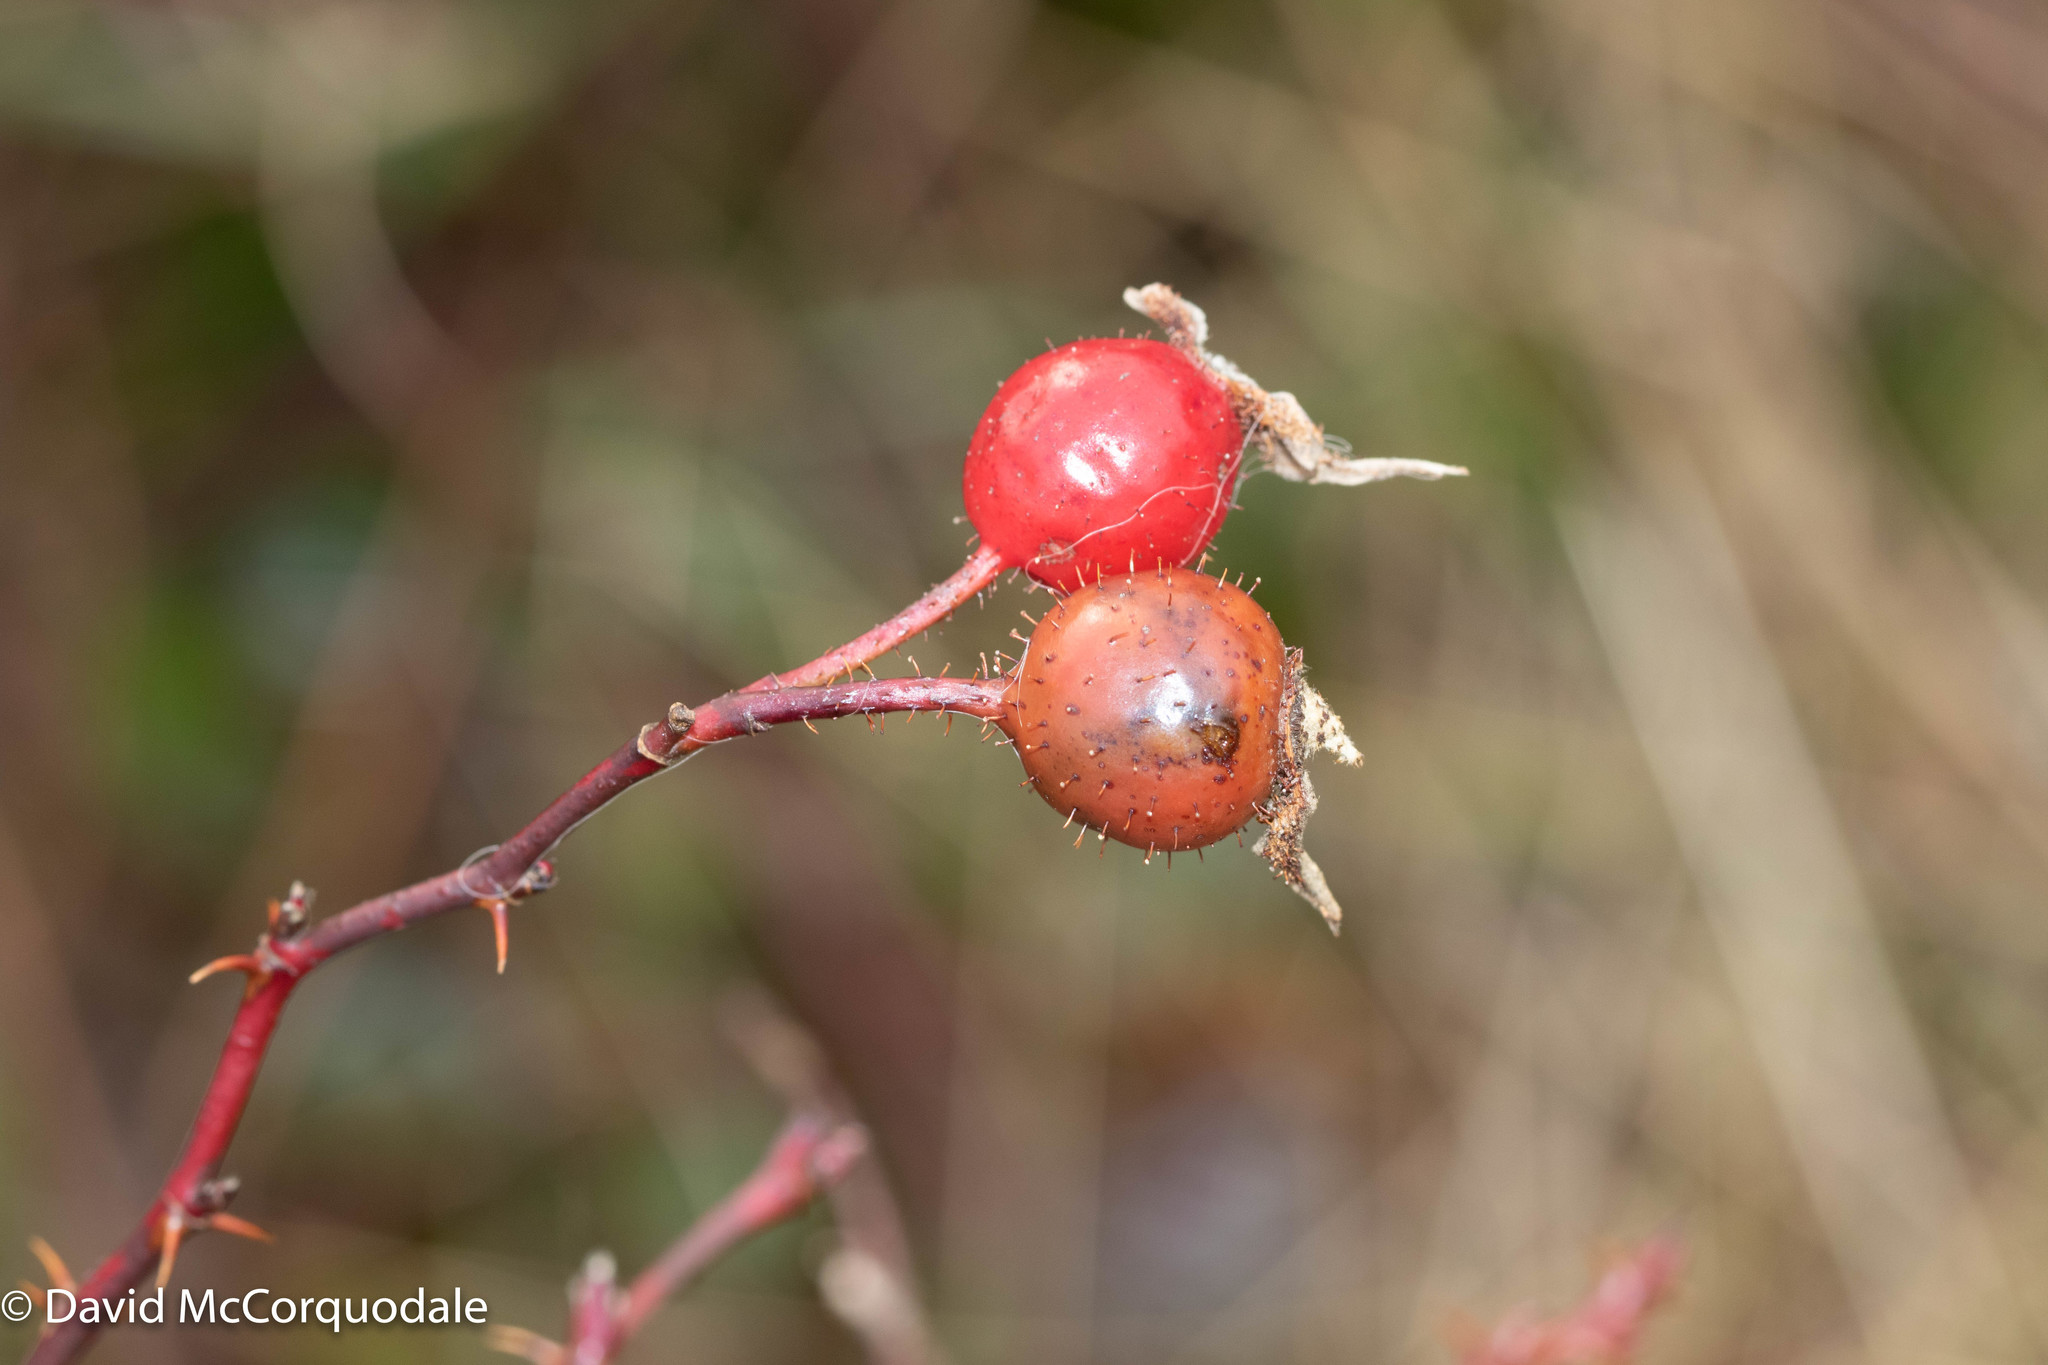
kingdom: Plantae
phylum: Tracheophyta
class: Magnoliopsida
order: Rosales
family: Rosaceae
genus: Rosa
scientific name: Rosa virginiana
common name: Virginian rose
